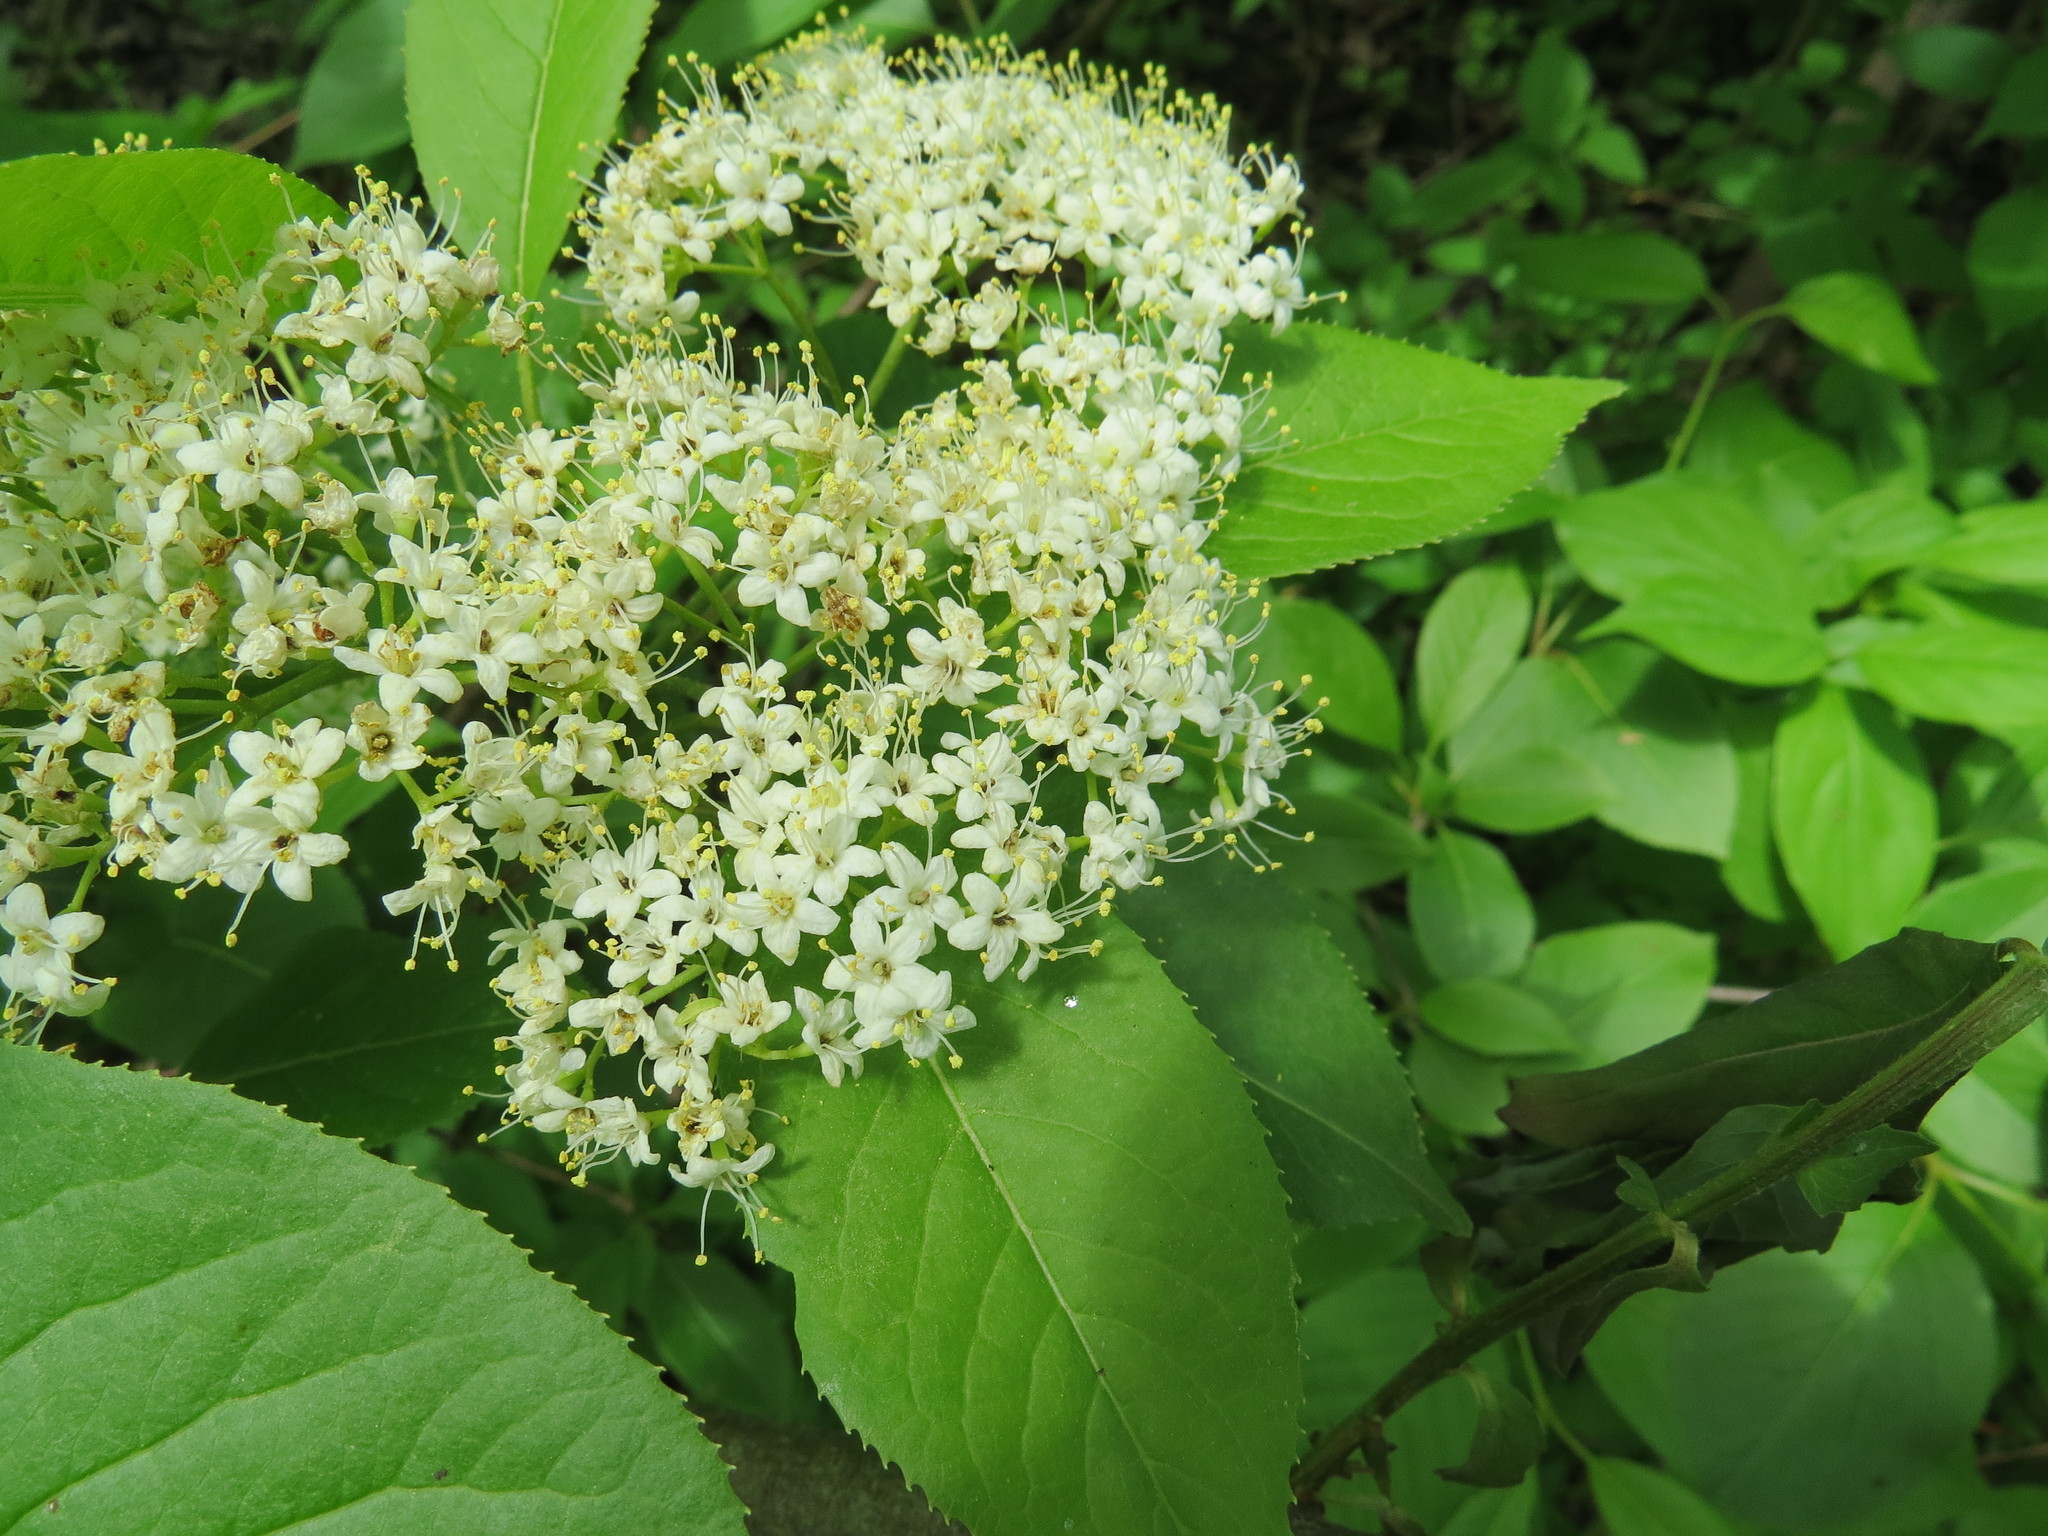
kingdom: Plantae
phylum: Tracheophyta
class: Magnoliopsida
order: Dipsacales
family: Viburnaceae
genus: Viburnum
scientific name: Viburnum lentago
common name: Black haw
